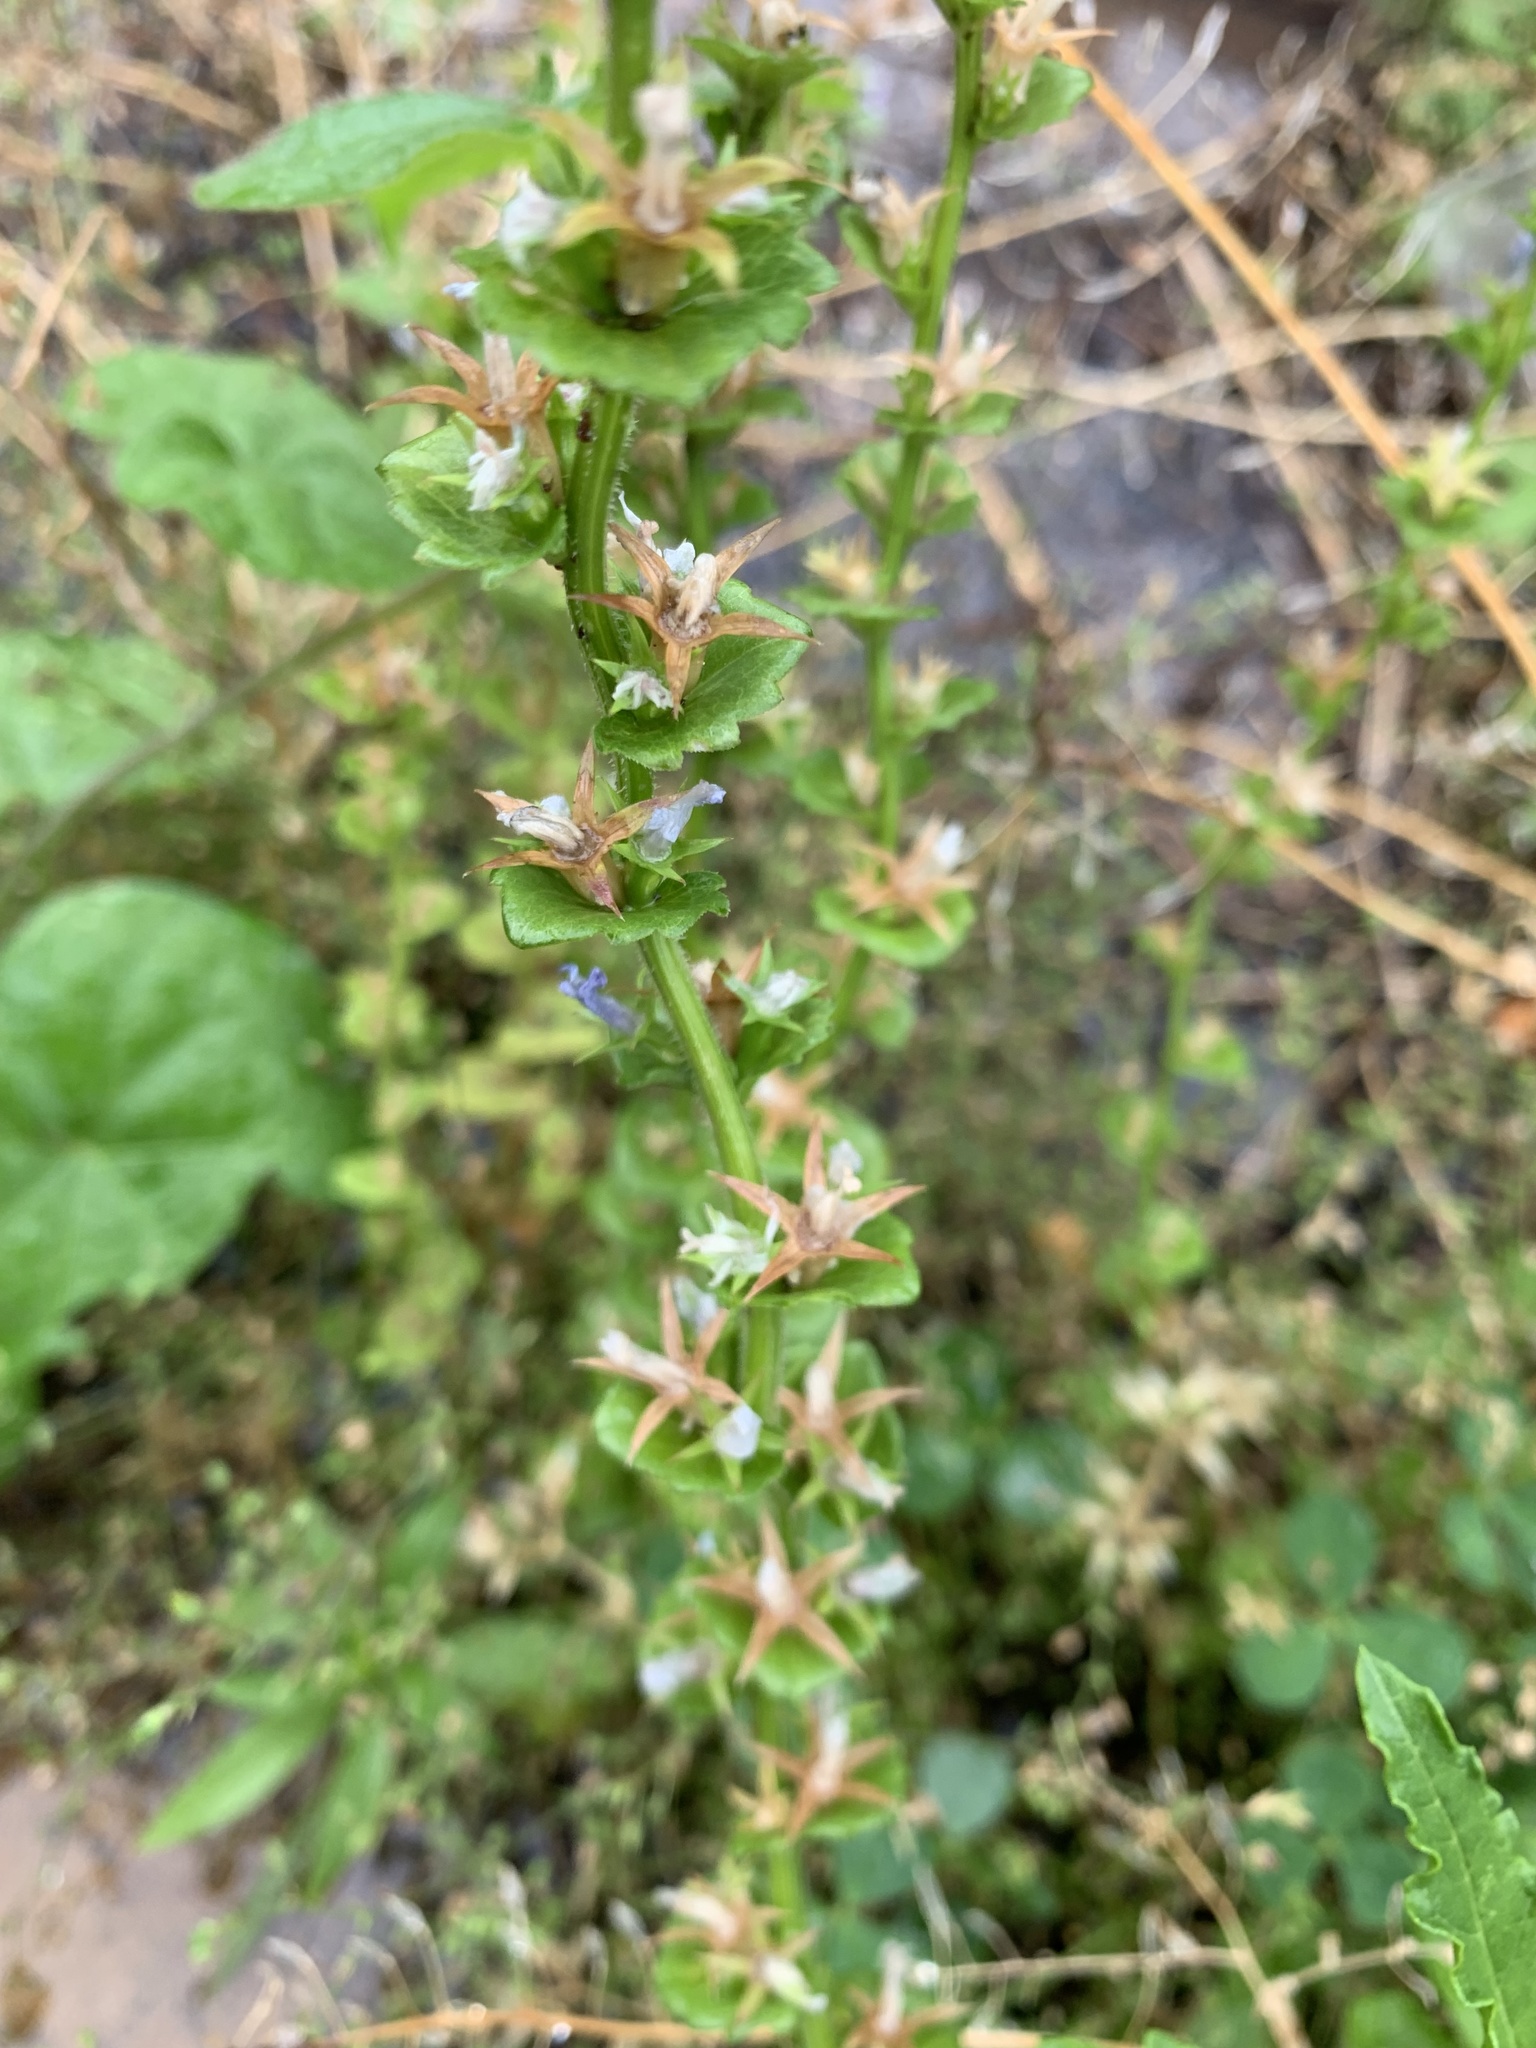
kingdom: Plantae
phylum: Tracheophyta
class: Magnoliopsida
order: Asterales
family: Campanulaceae
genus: Triodanis
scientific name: Triodanis perfoliata
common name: Clasping venus' looking-glass
